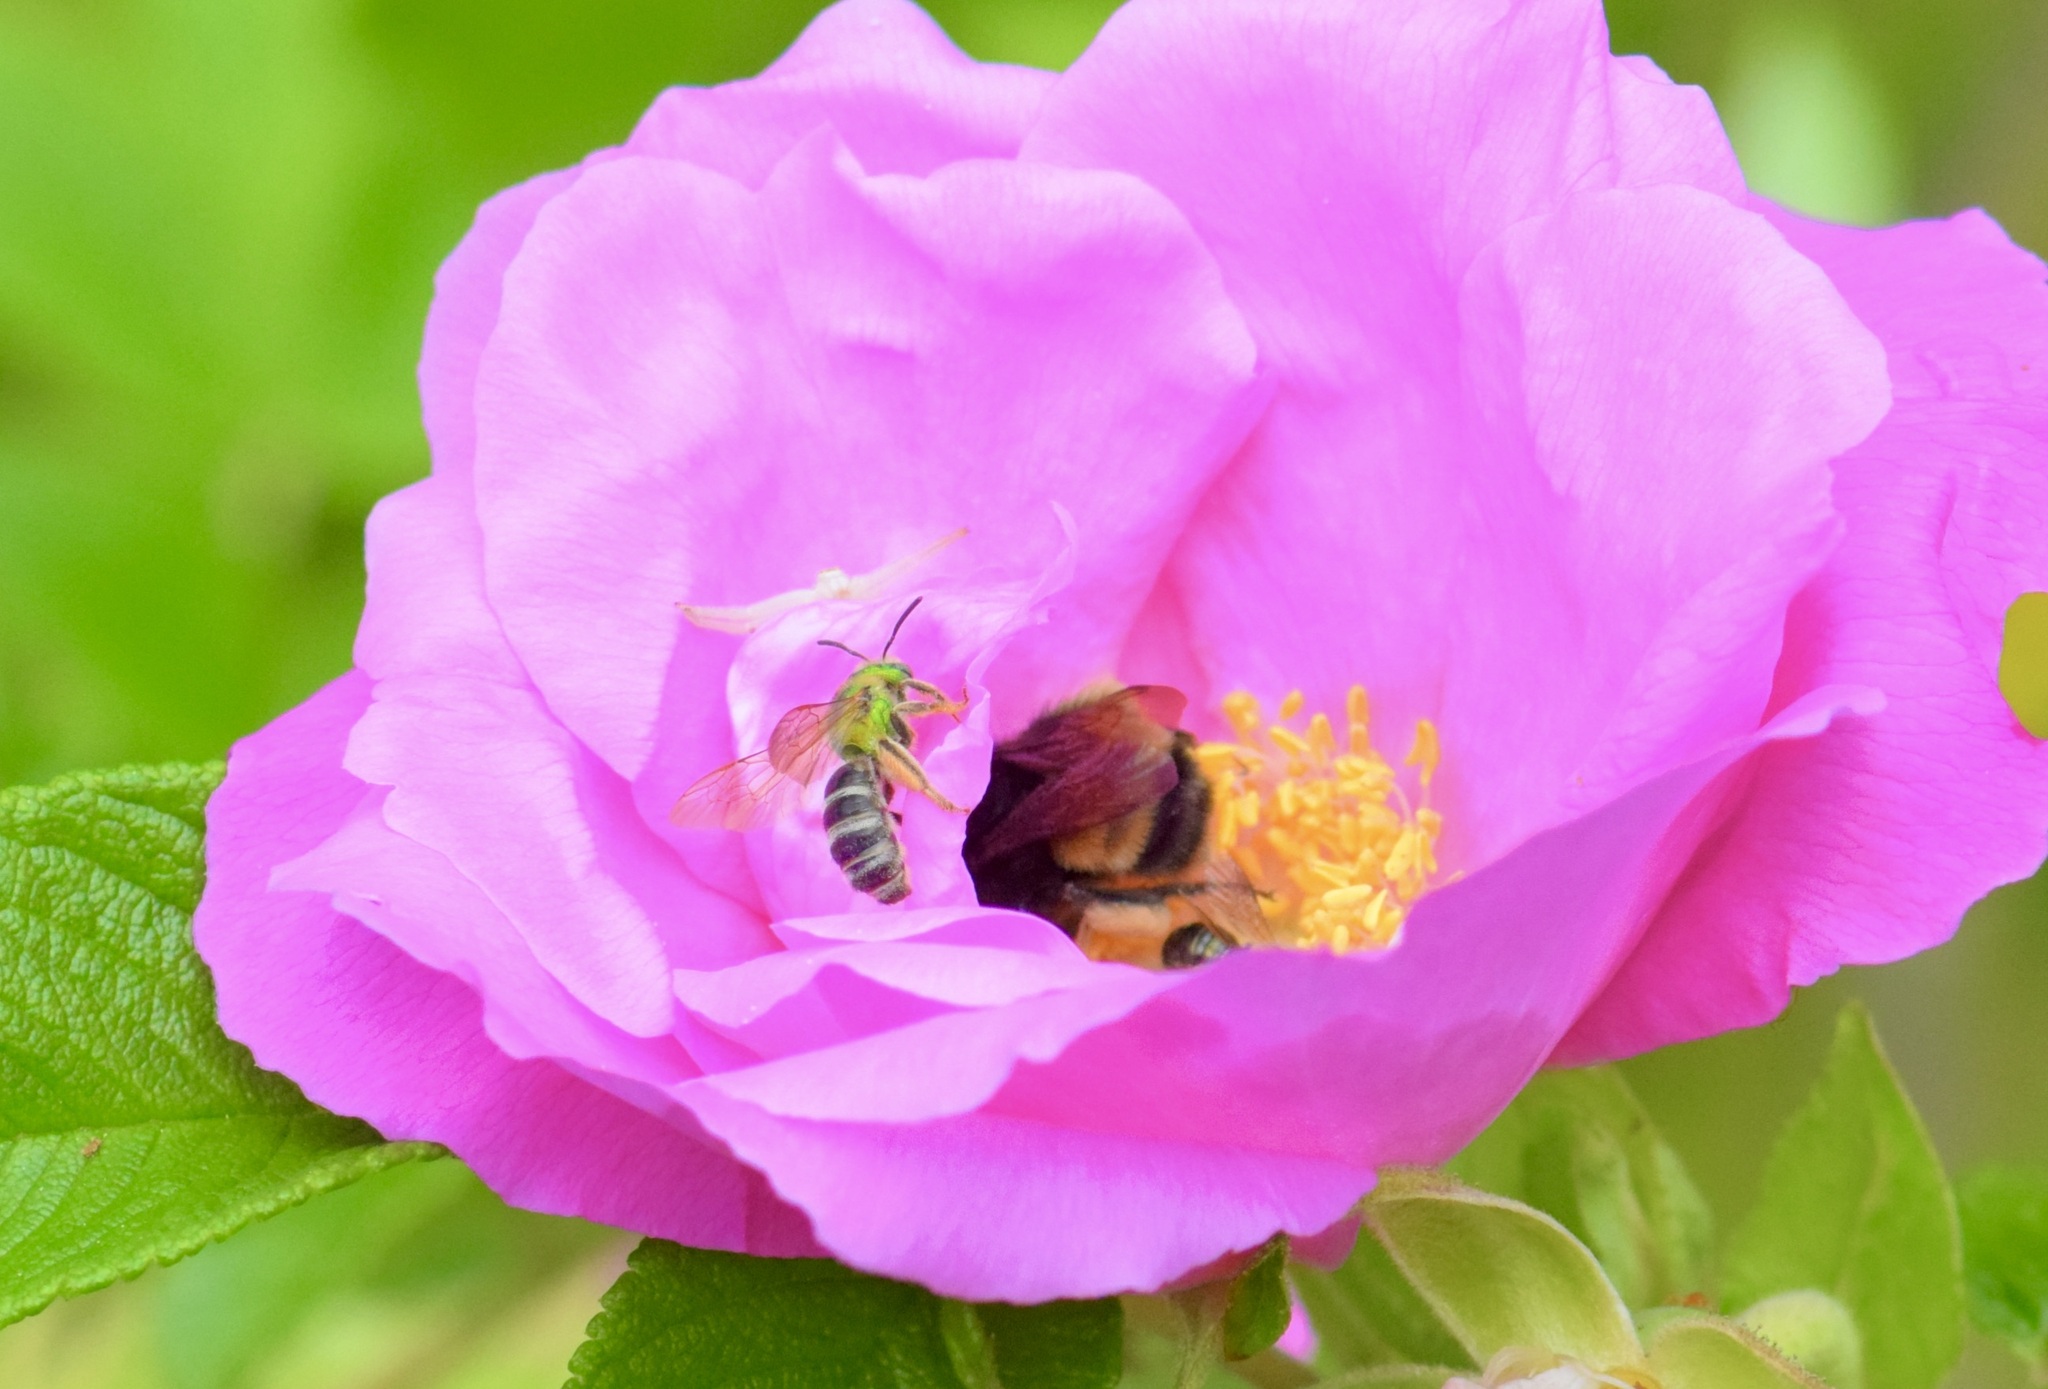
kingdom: Animalia
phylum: Arthropoda
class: Insecta
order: Hymenoptera
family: Halictidae
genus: Agapostemon
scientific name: Agapostemon virescens
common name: Bicolored striped sweat bee
